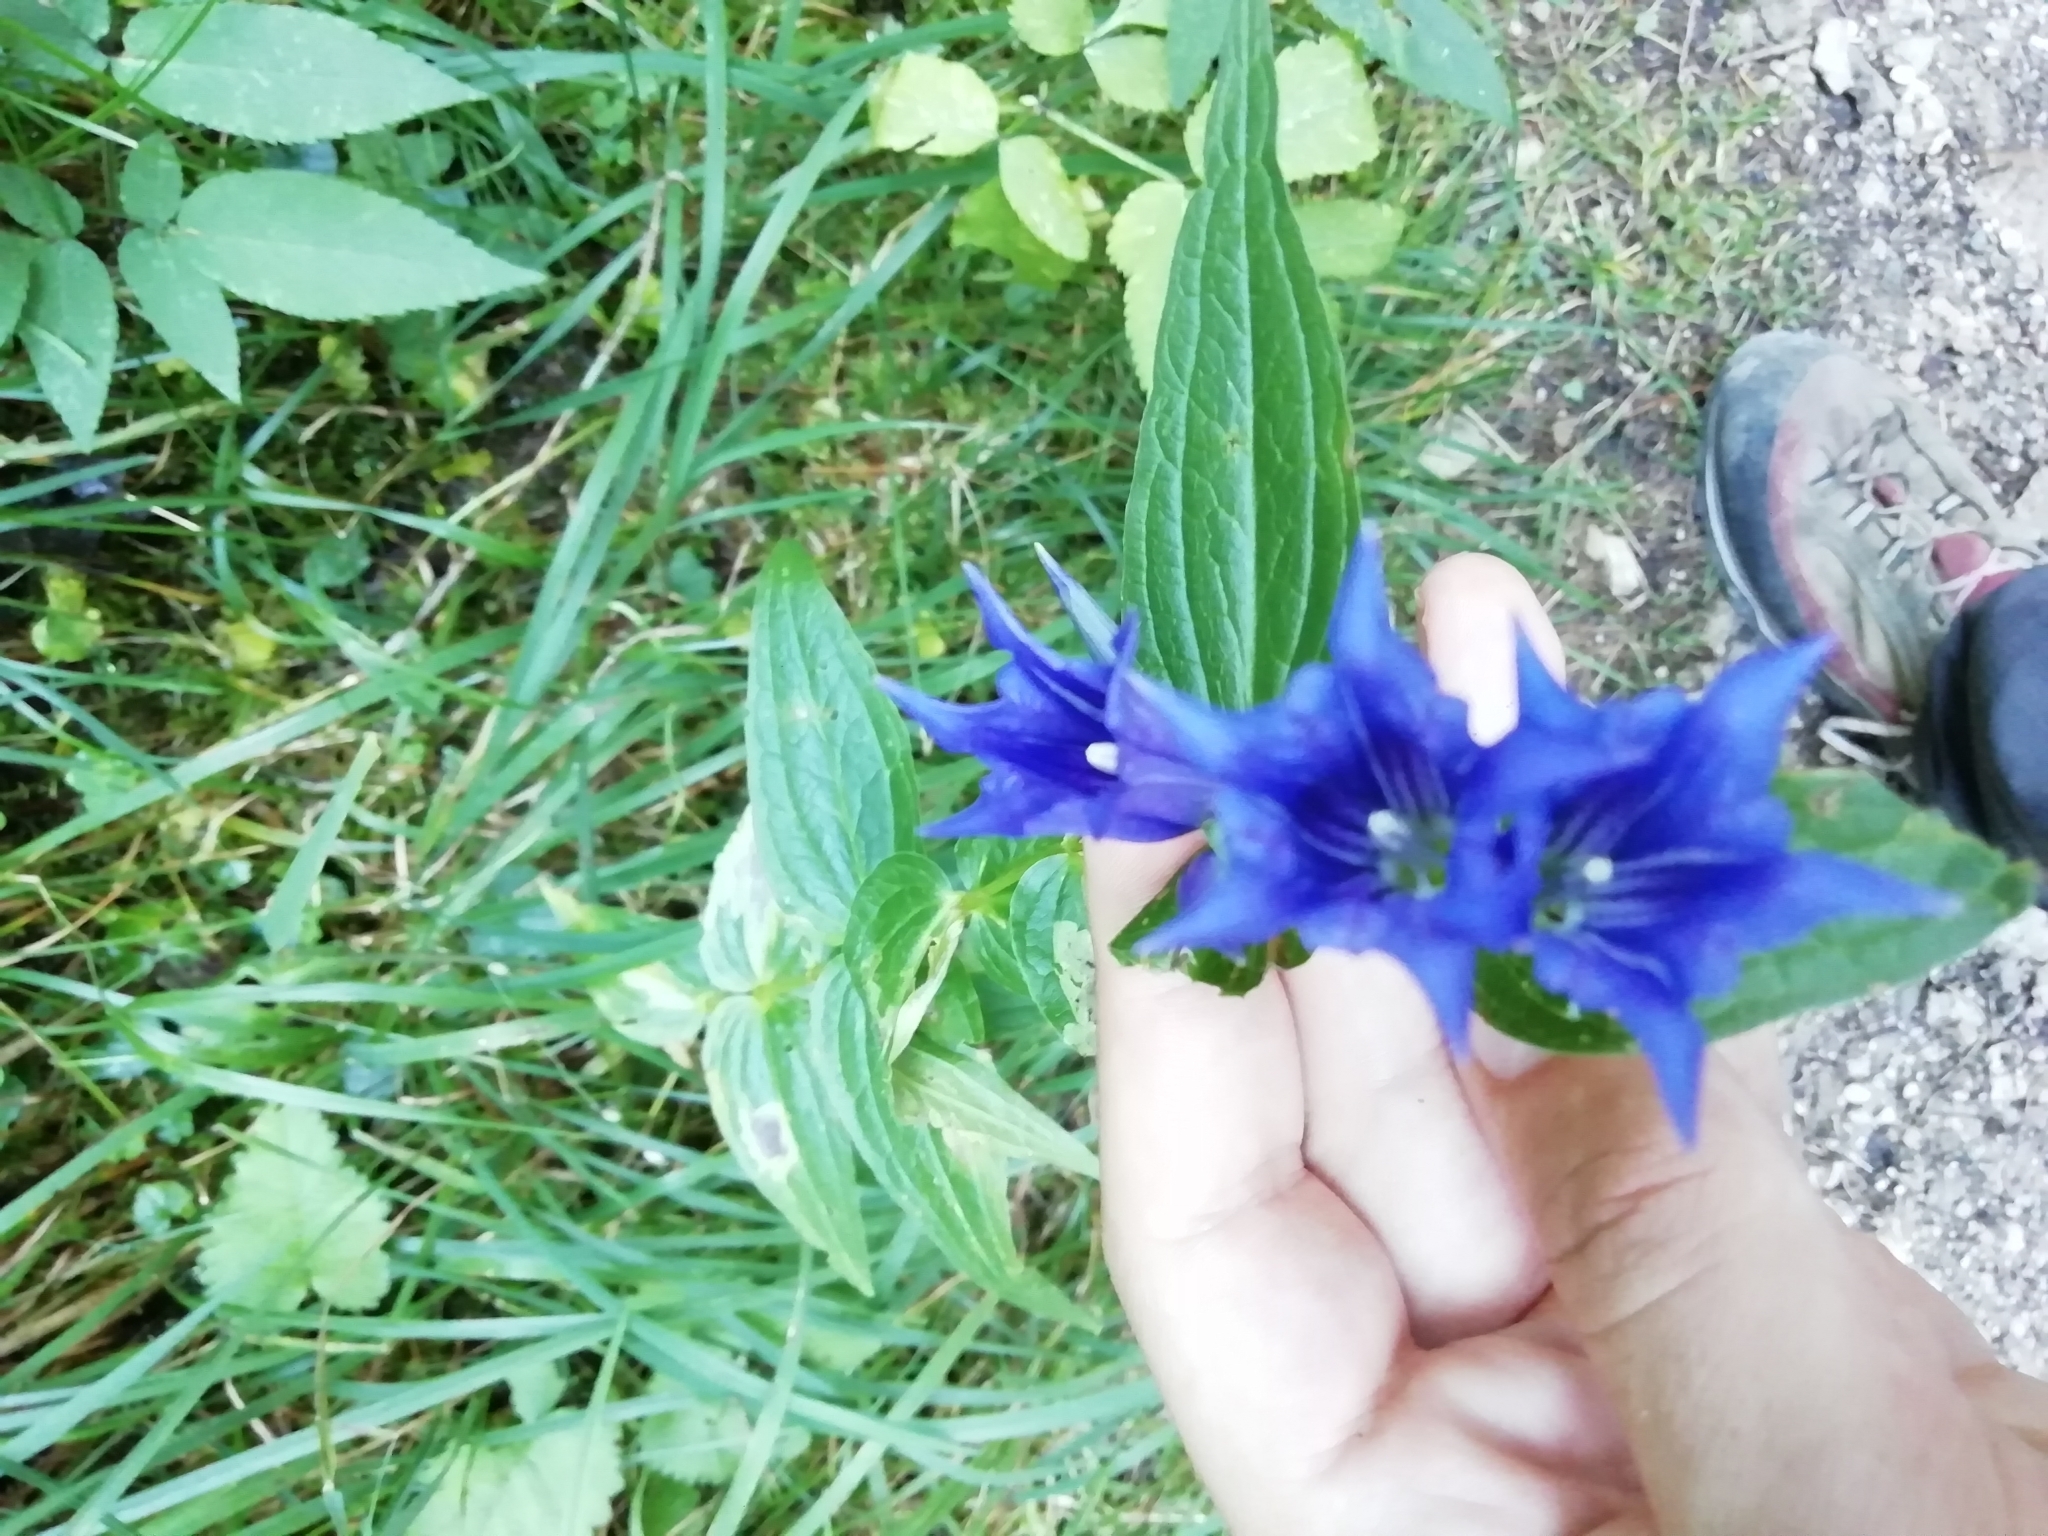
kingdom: Plantae
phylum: Tracheophyta
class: Magnoliopsida
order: Gentianales
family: Gentianaceae
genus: Gentiana
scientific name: Gentiana asclepiadea
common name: Willow gentian
